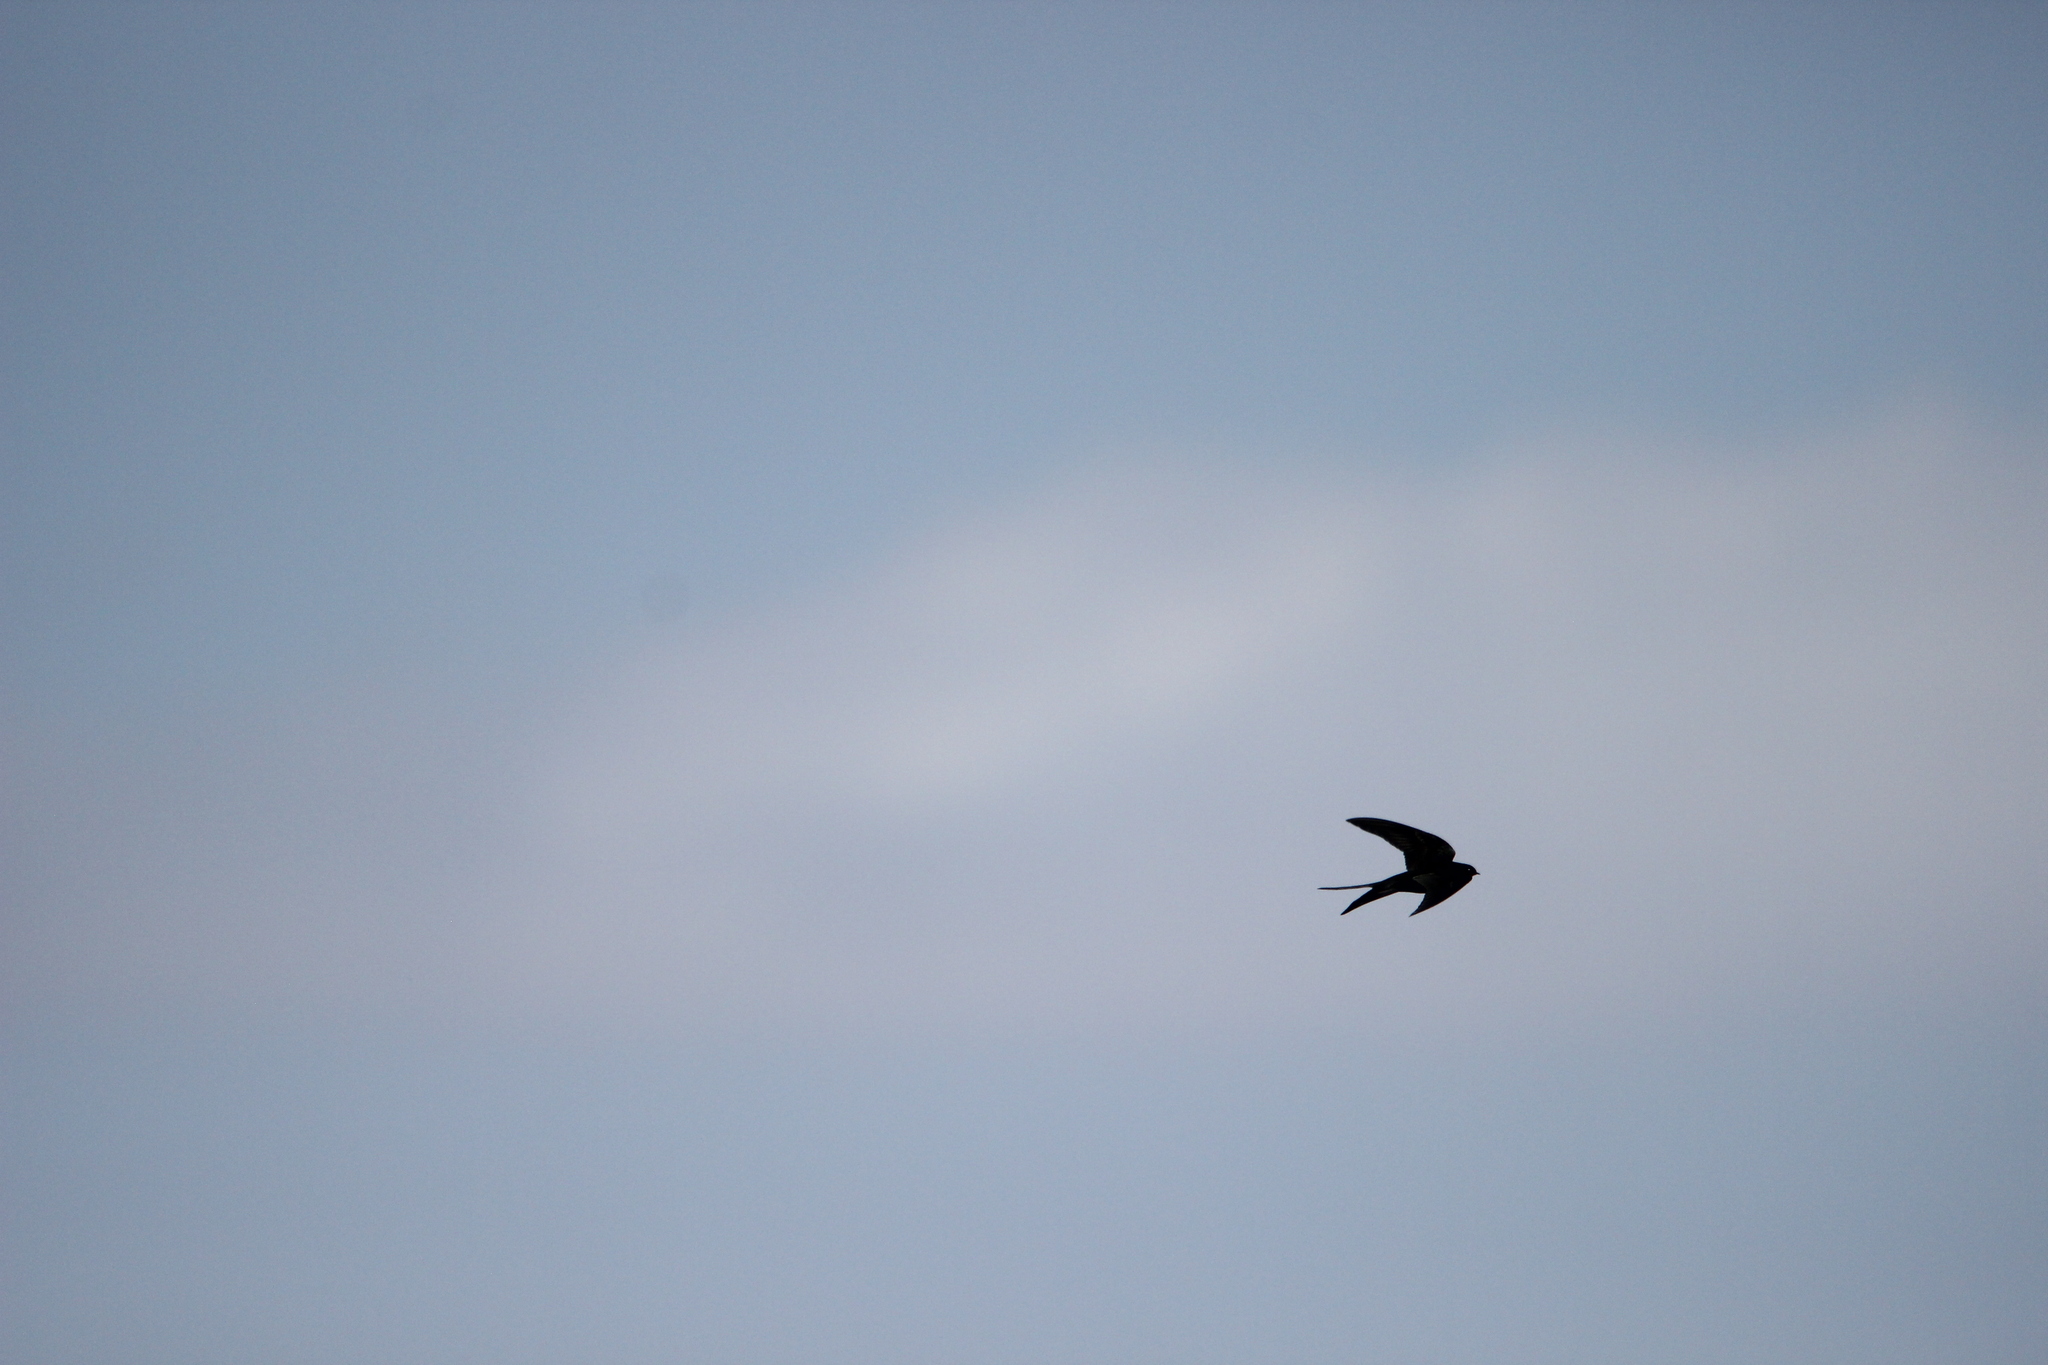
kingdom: Animalia
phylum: Chordata
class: Aves
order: Passeriformes
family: Hirundinidae
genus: Psalidoprocne
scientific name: Psalidoprocne pristoptera
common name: Black saw-wing
